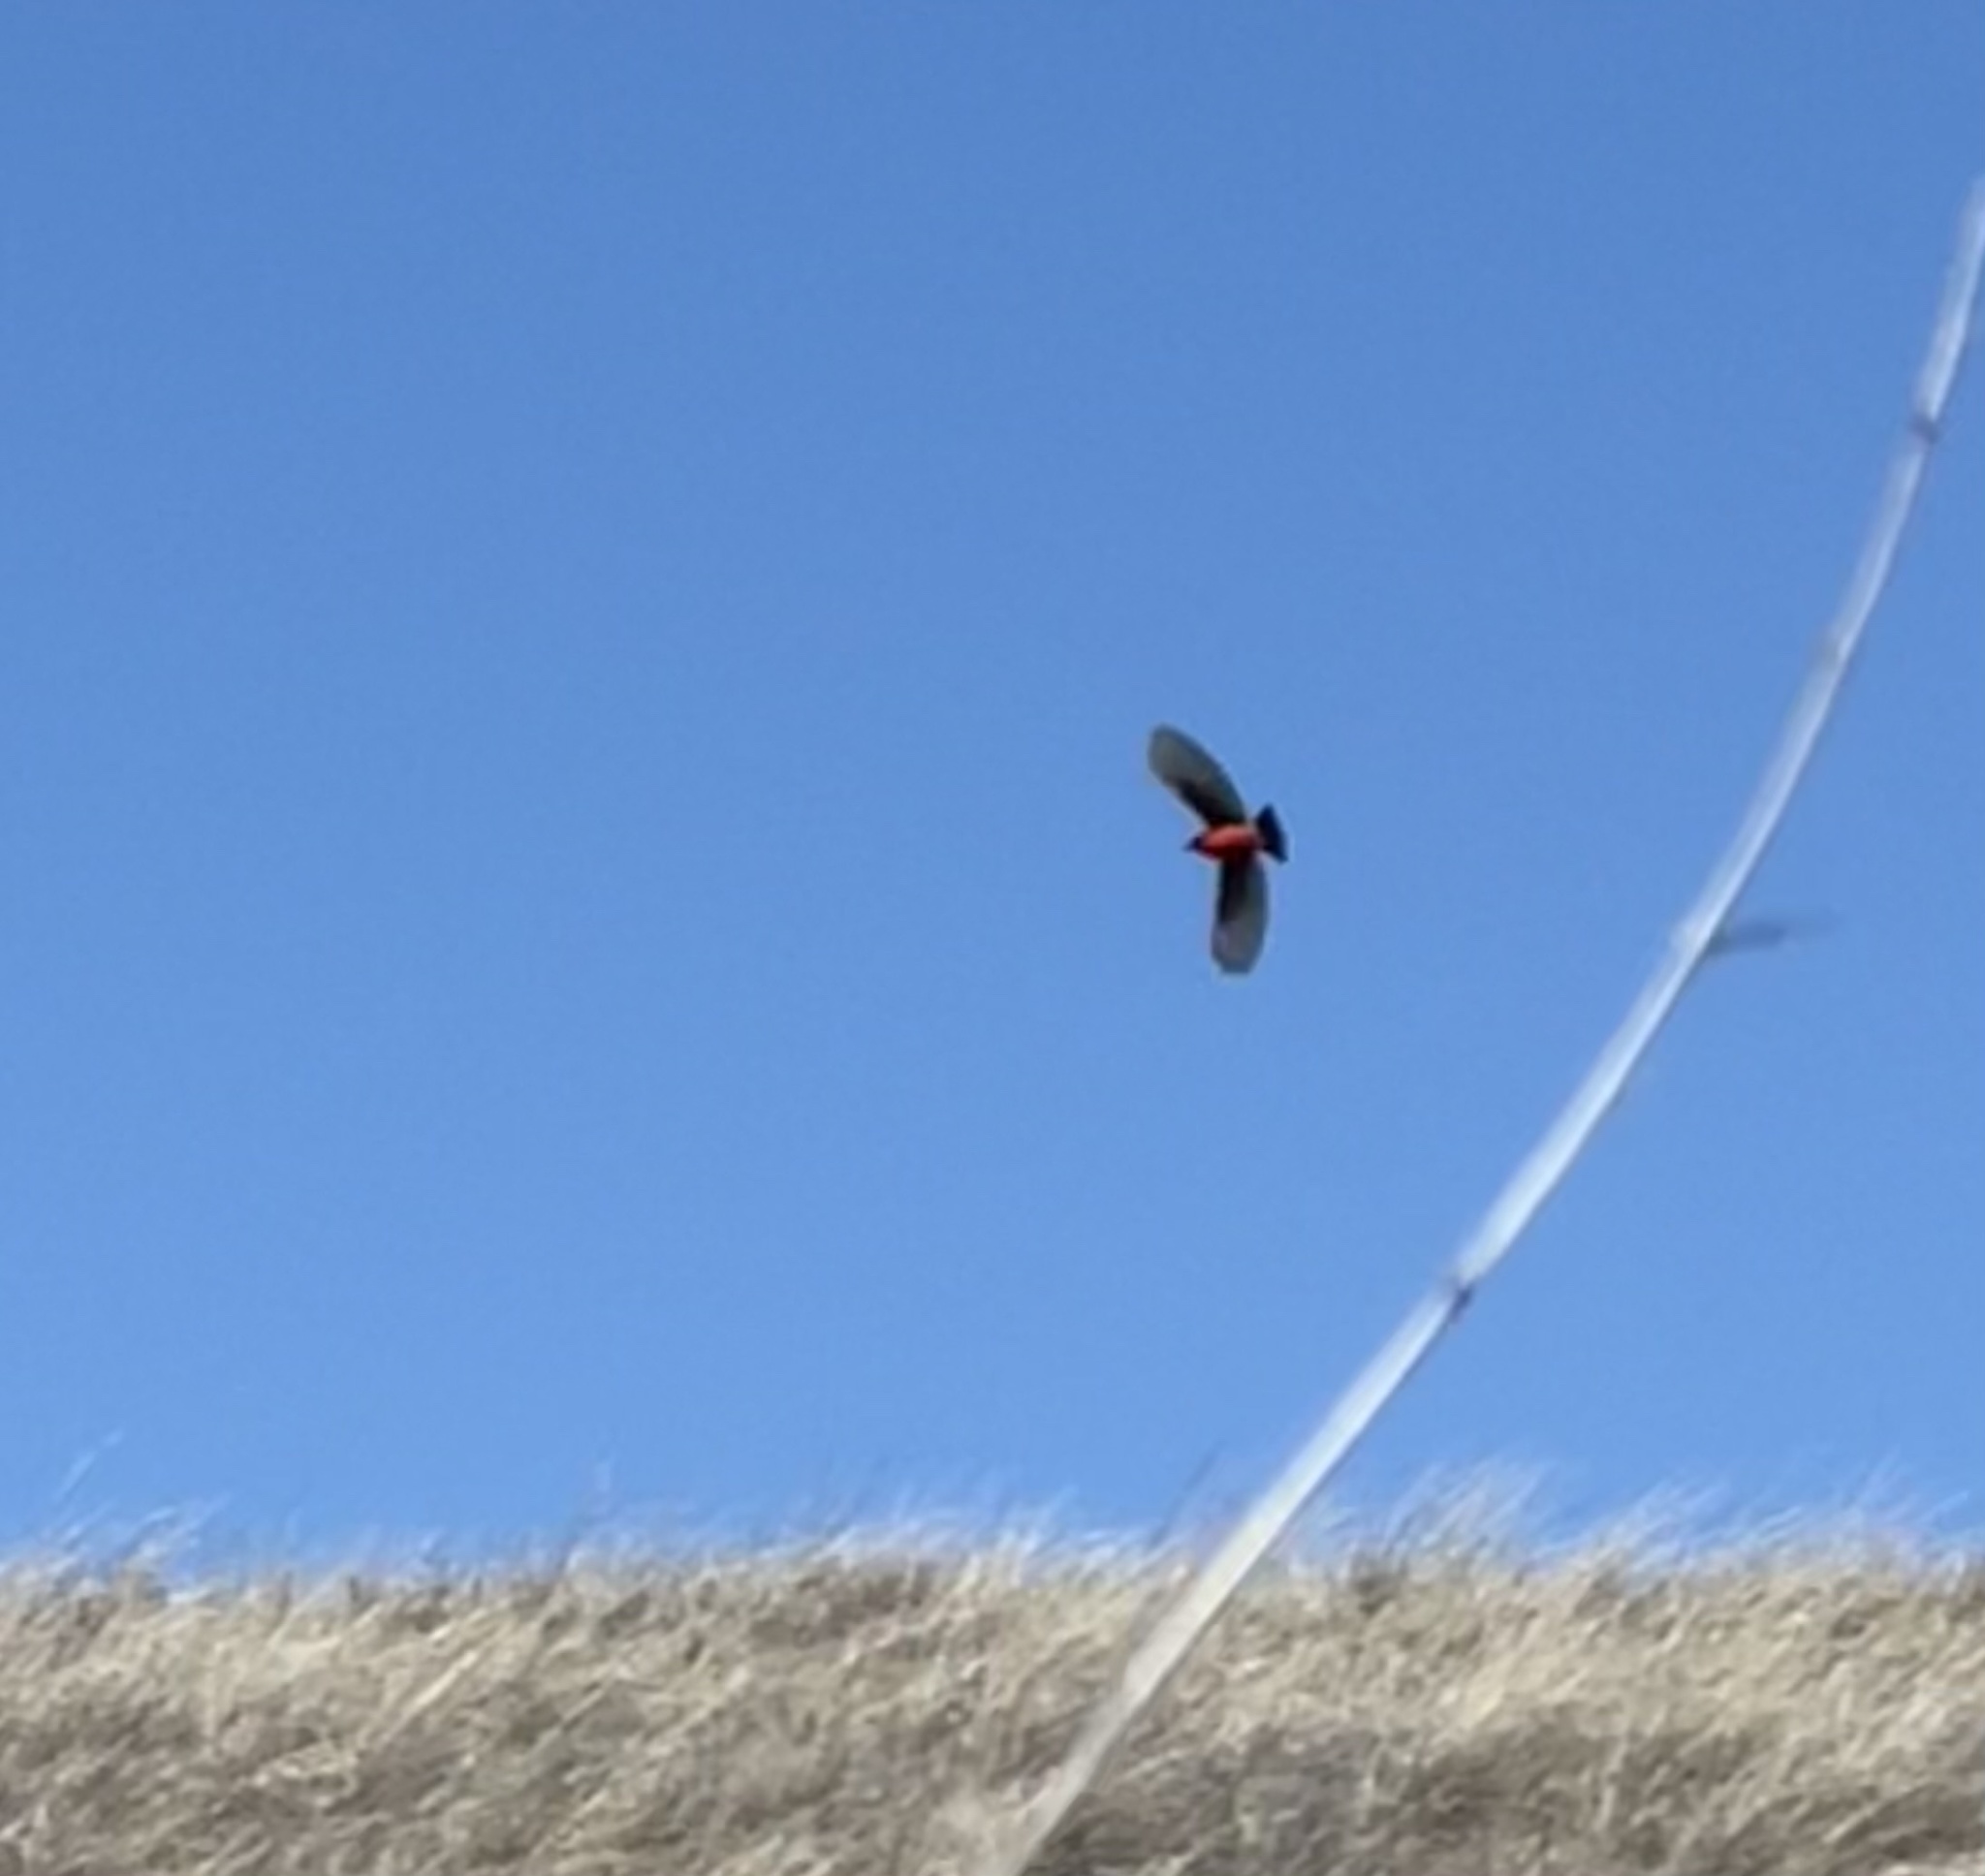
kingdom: Animalia
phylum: Chordata
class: Aves
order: Passeriformes
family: Tyrannidae
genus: Pyrocephalus
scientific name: Pyrocephalus rubinus
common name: Vermilion flycatcher
